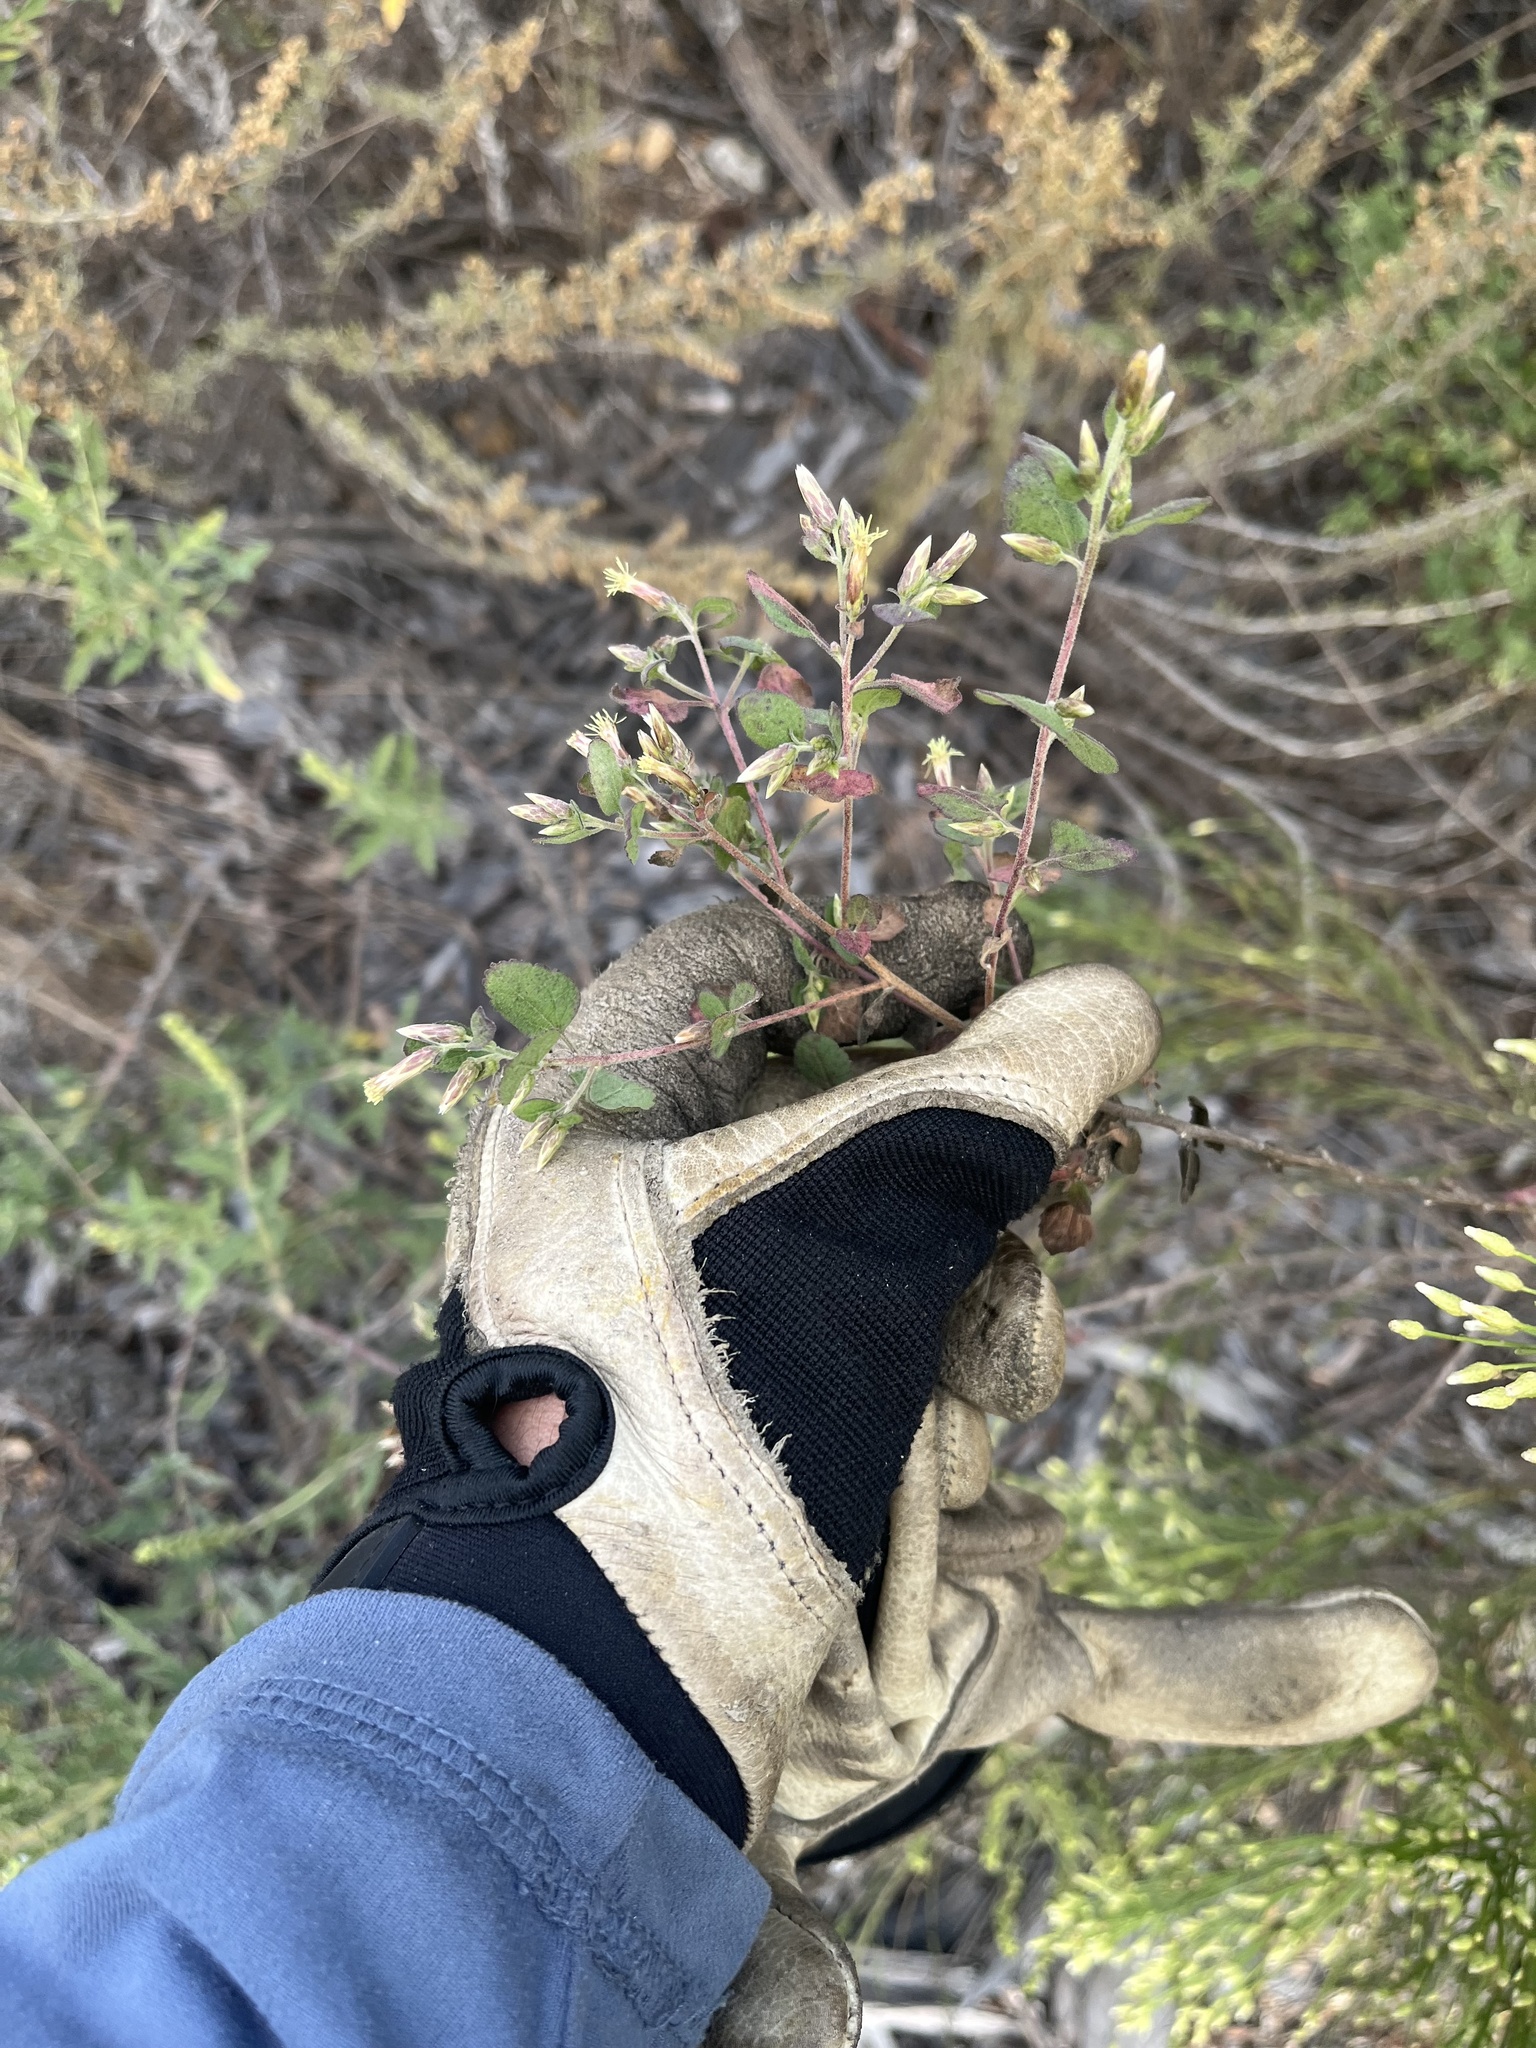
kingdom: Plantae
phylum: Tracheophyta
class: Magnoliopsida
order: Asterales
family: Asteraceae
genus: Brickellia
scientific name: Brickellia californica
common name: California brickellbush
